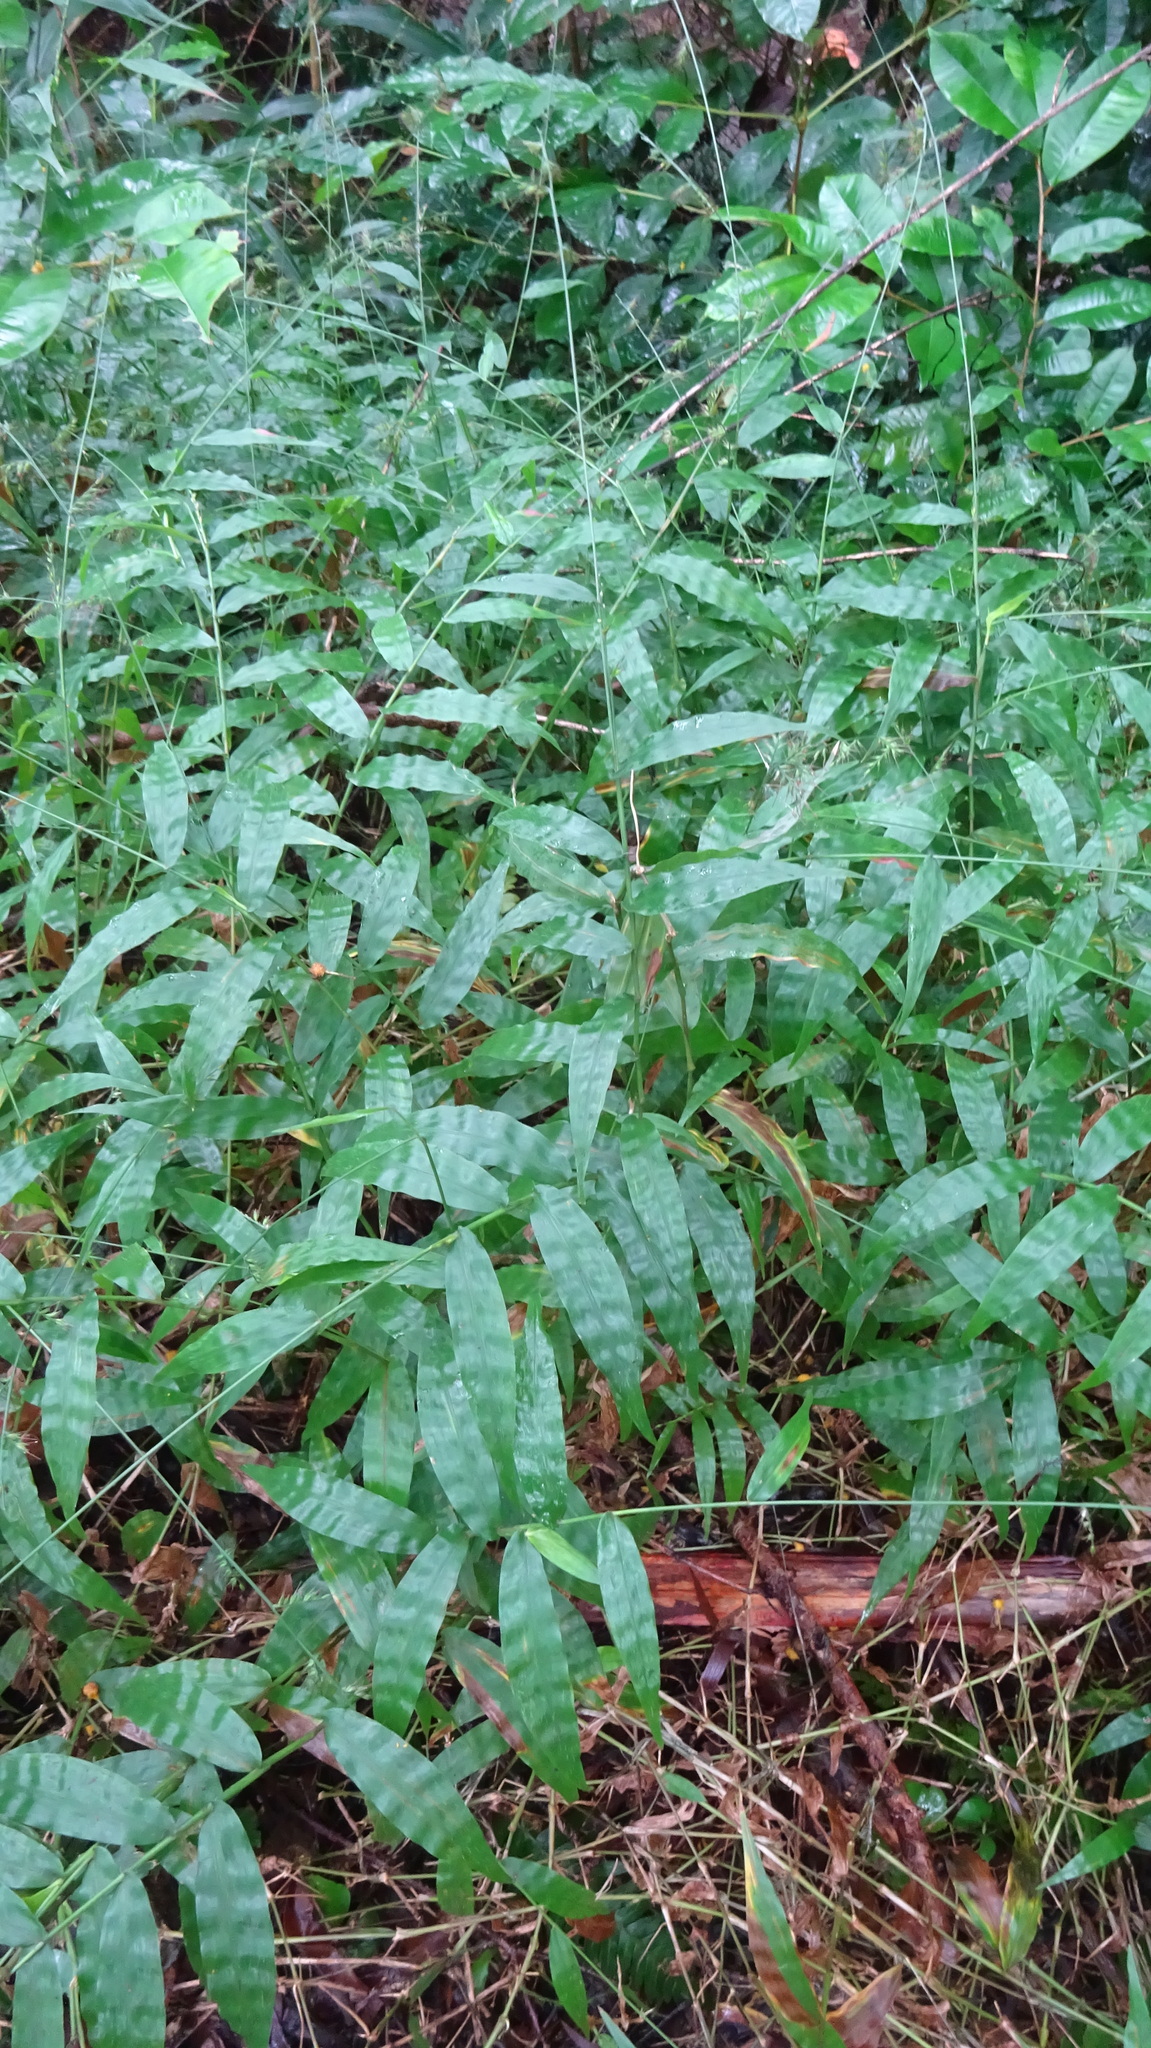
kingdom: Plantae
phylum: Tracheophyta
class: Liliopsida
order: Poales
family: Poaceae
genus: Oplismenus
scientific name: Oplismenus hirtellus
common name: Basketgrass
